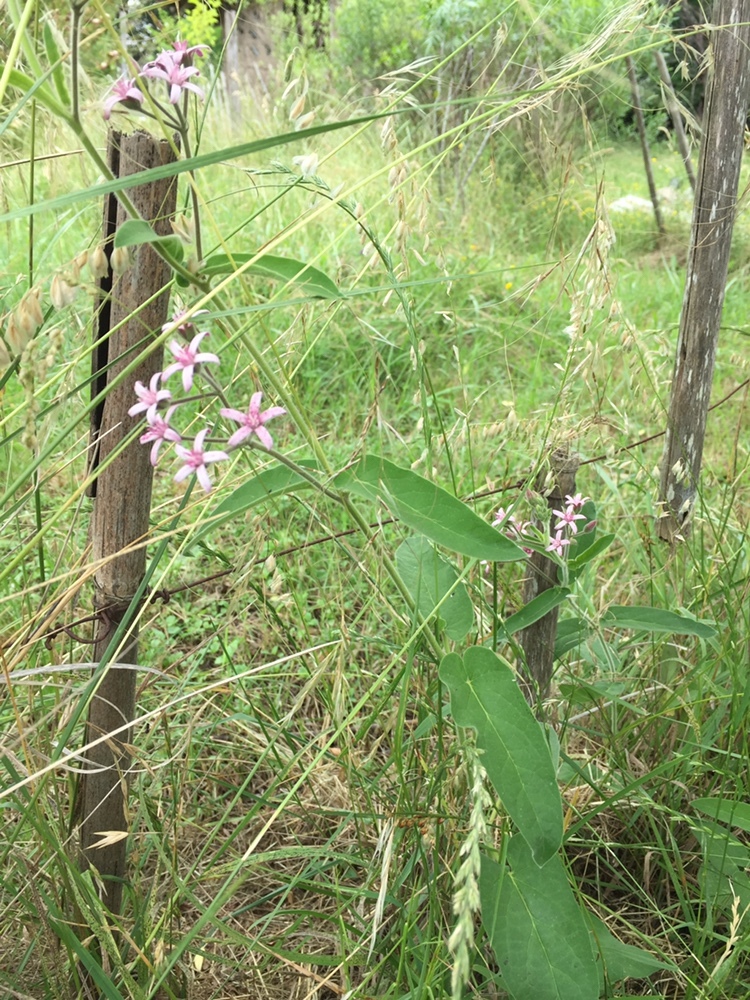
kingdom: Plantae
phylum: Tracheophyta
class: Magnoliopsida
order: Gentianales
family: Apocynaceae
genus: Oxypetalum
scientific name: Oxypetalum solanoides
